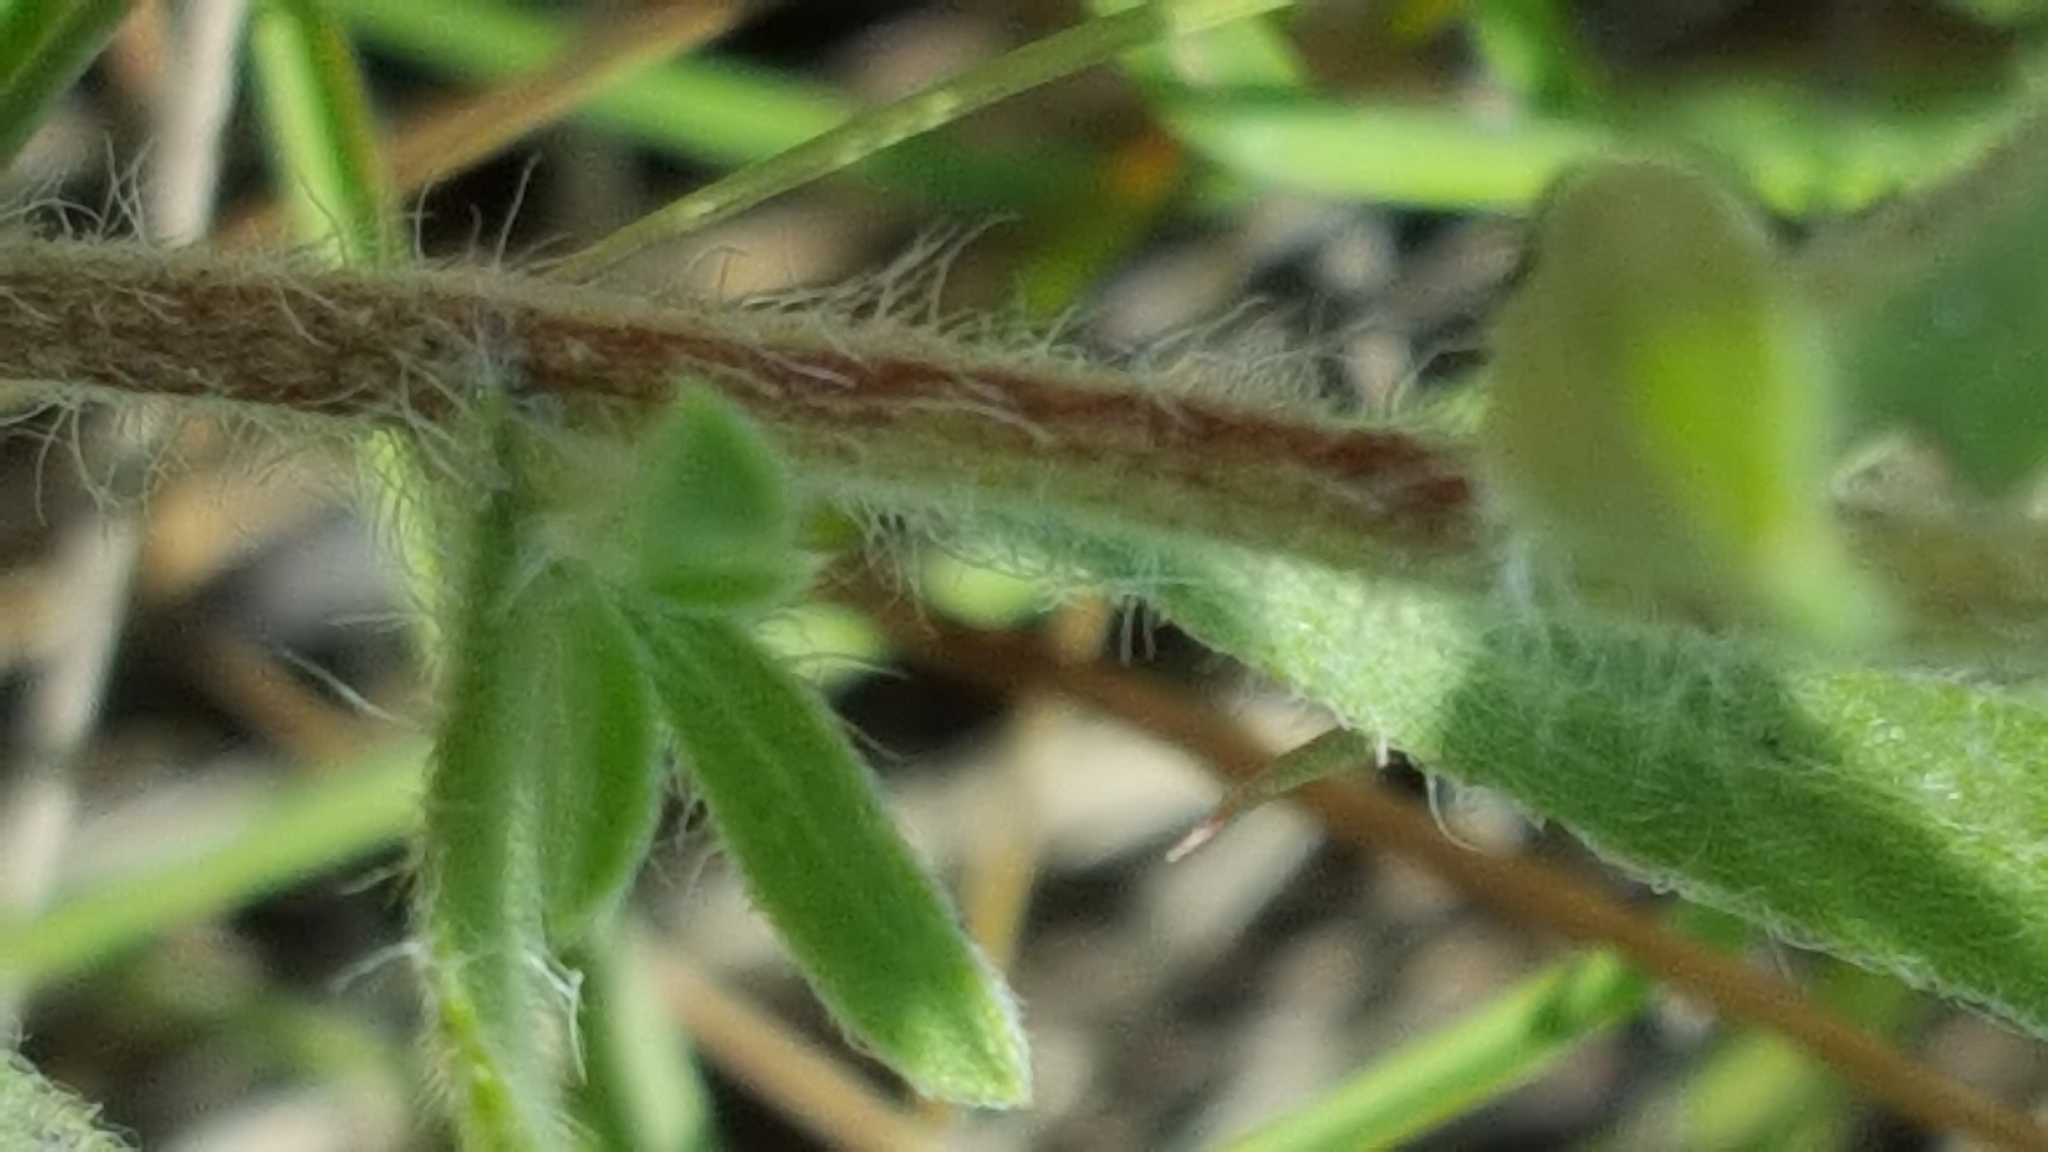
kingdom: Plantae
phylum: Tracheophyta
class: Magnoliopsida
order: Asterales
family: Asteraceae
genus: Heterotheca
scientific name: Heterotheca villosa
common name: Hairy false goldenaster
